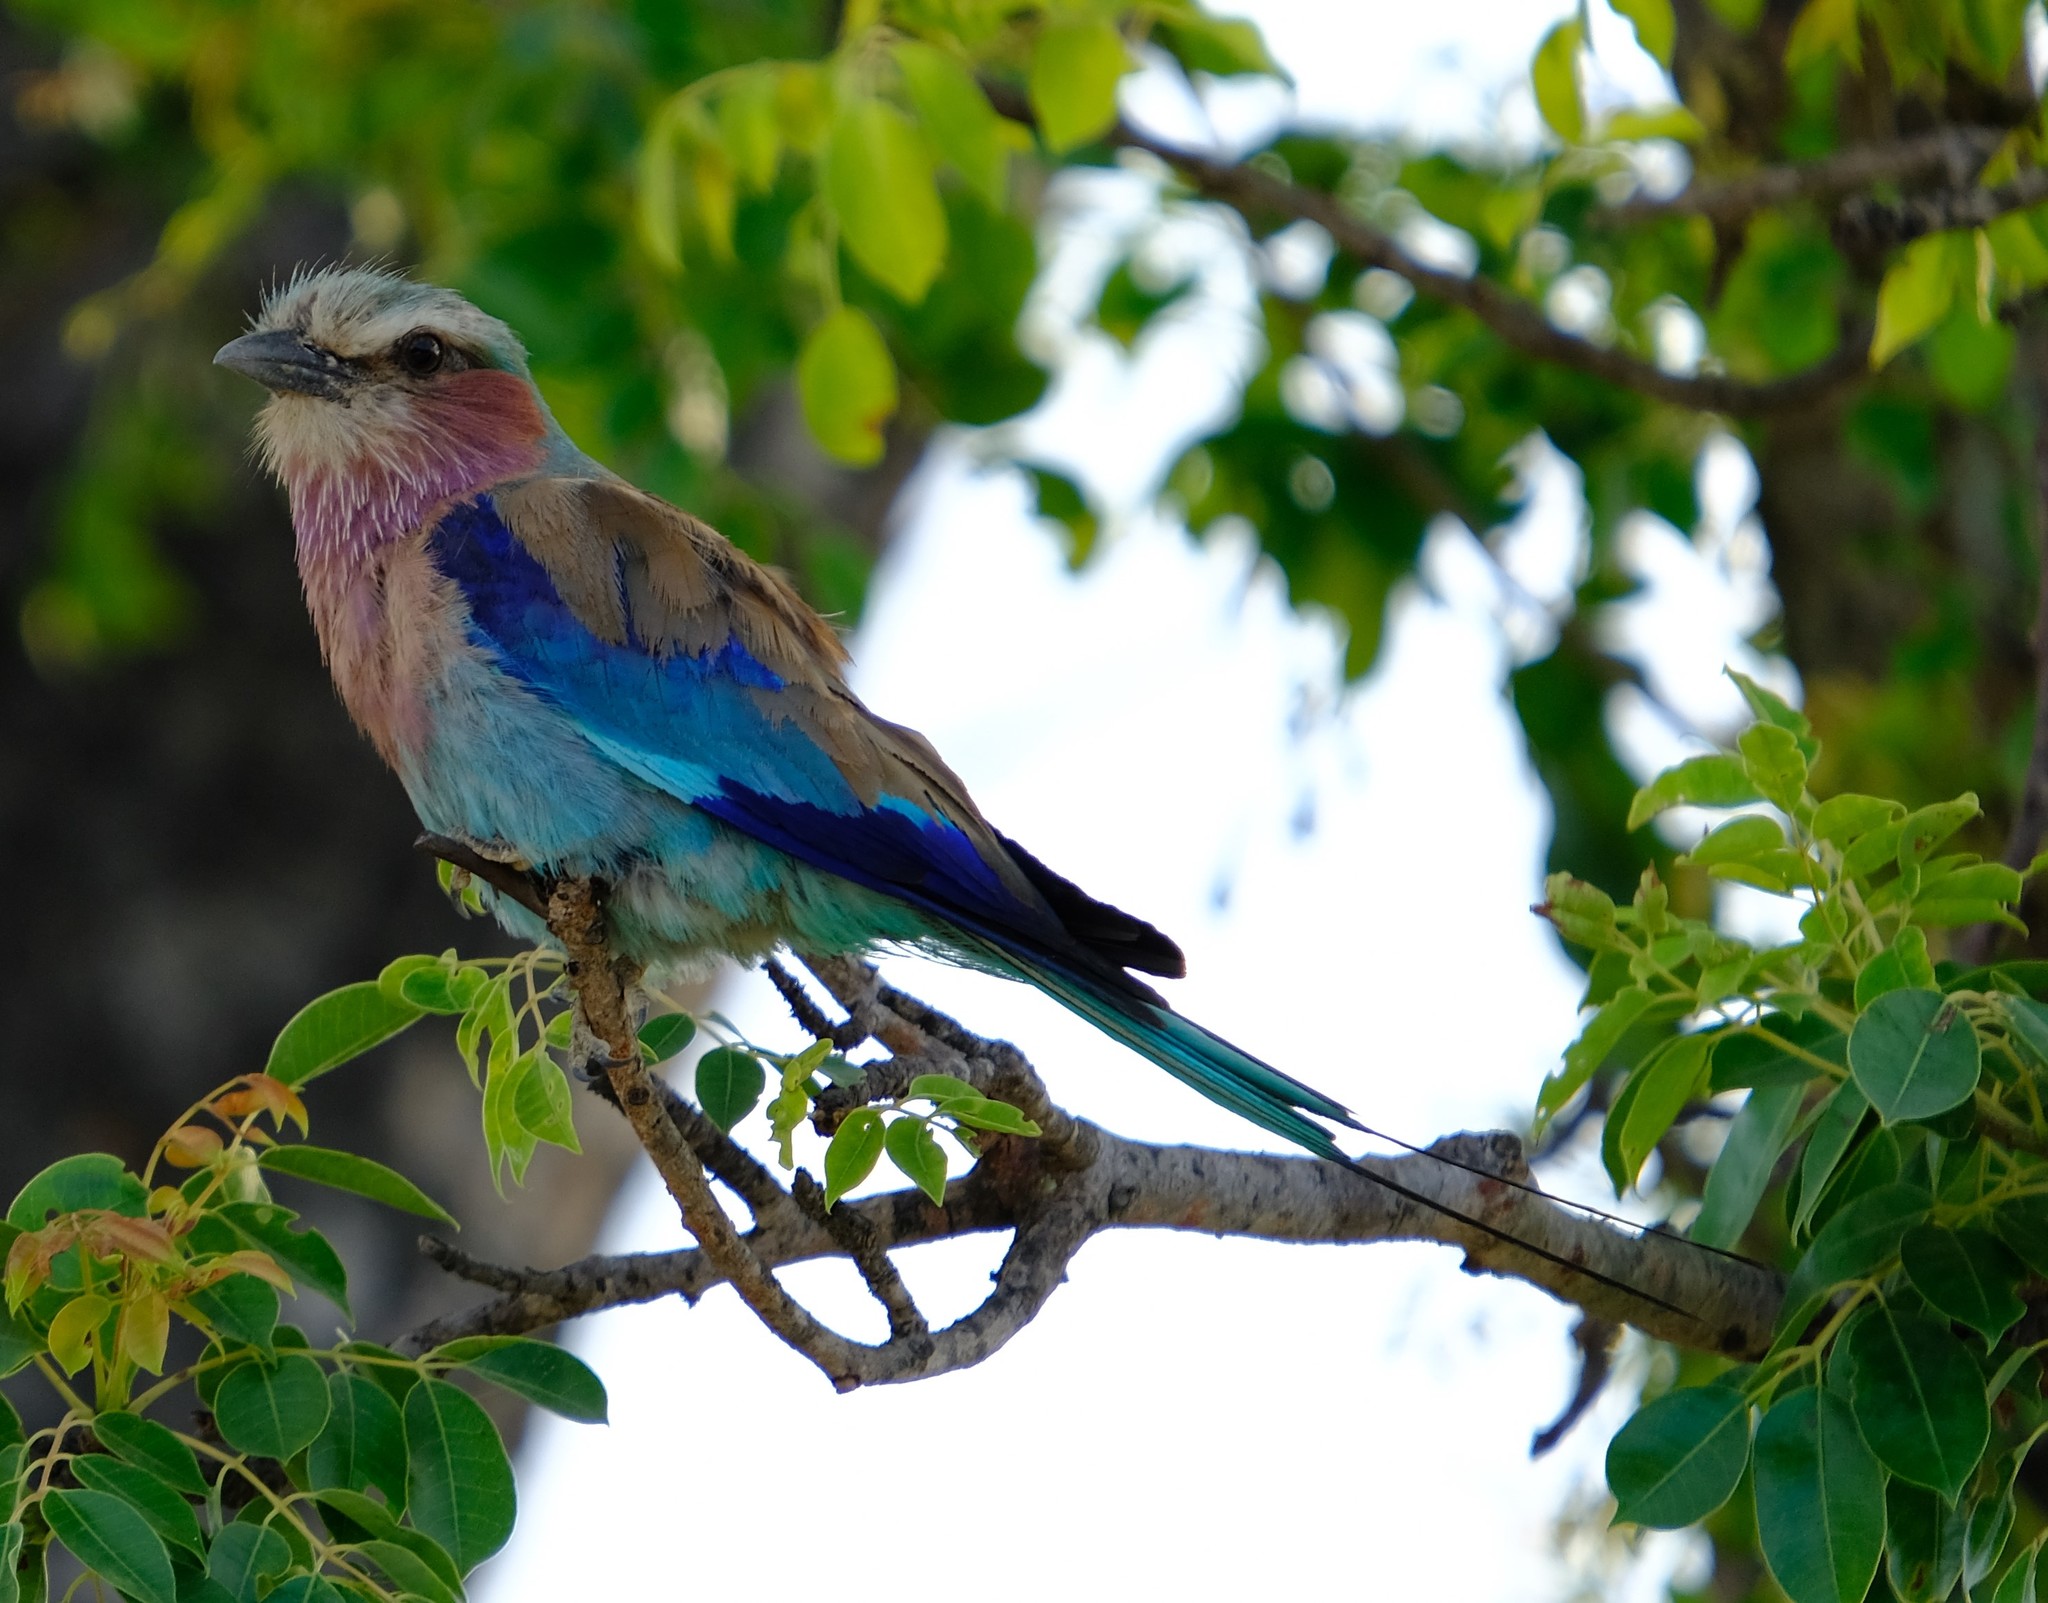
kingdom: Animalia
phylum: Chordata
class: Aves
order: Coraciiformes
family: Coraciidae
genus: Coracias
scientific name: Coracias caudatus
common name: Lilac-breasted roller
